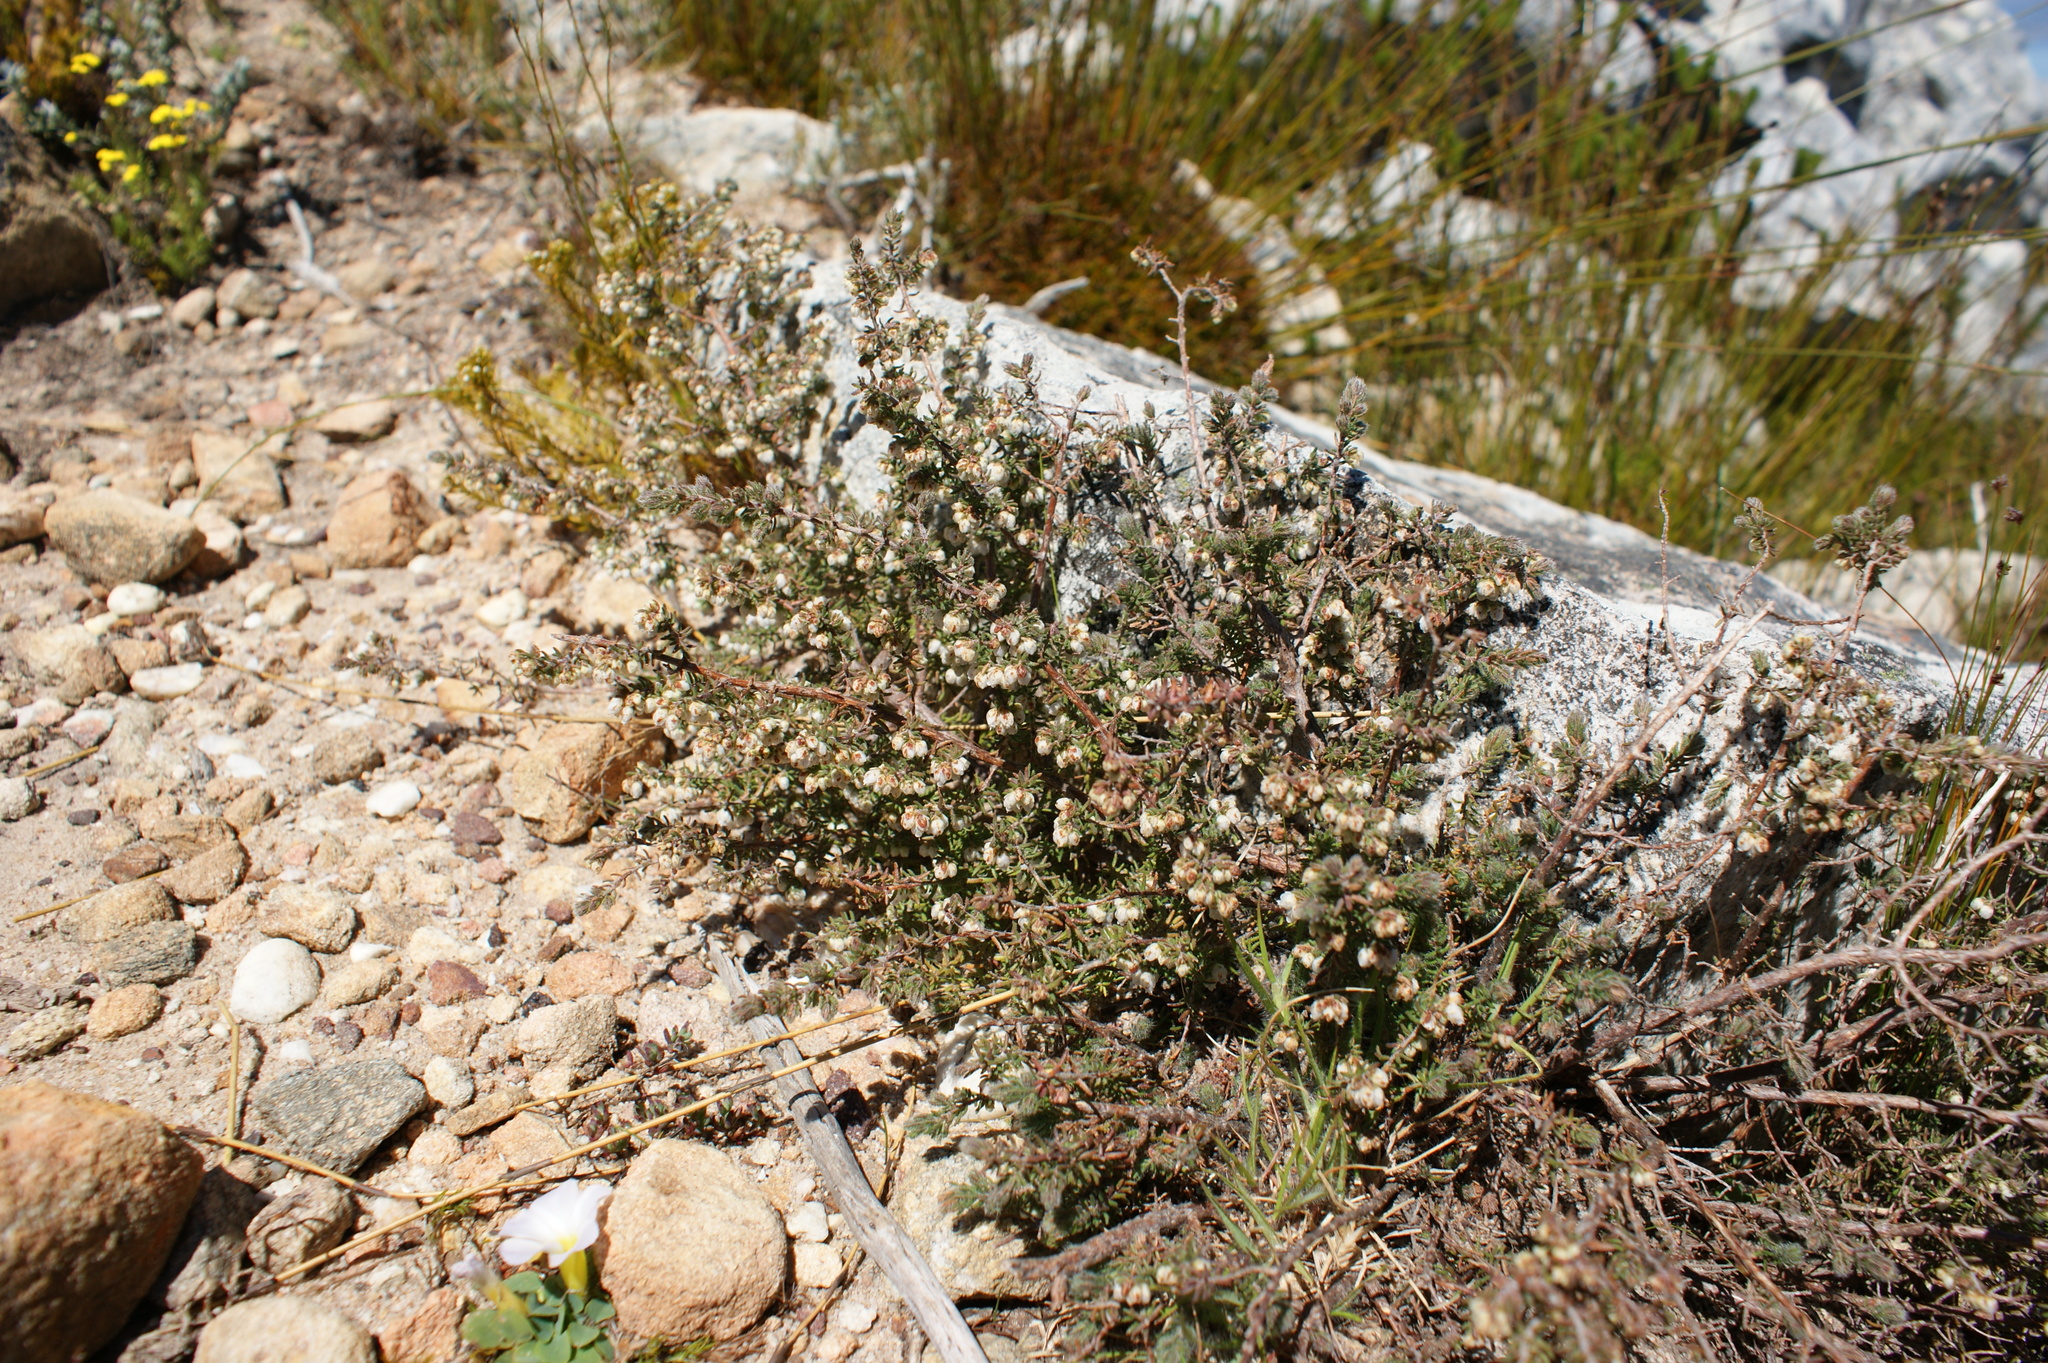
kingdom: Plantae
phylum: Tracheophyta
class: Magnoliopsida
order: Ericales
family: Ericaceae
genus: Erica
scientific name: Erica totta
